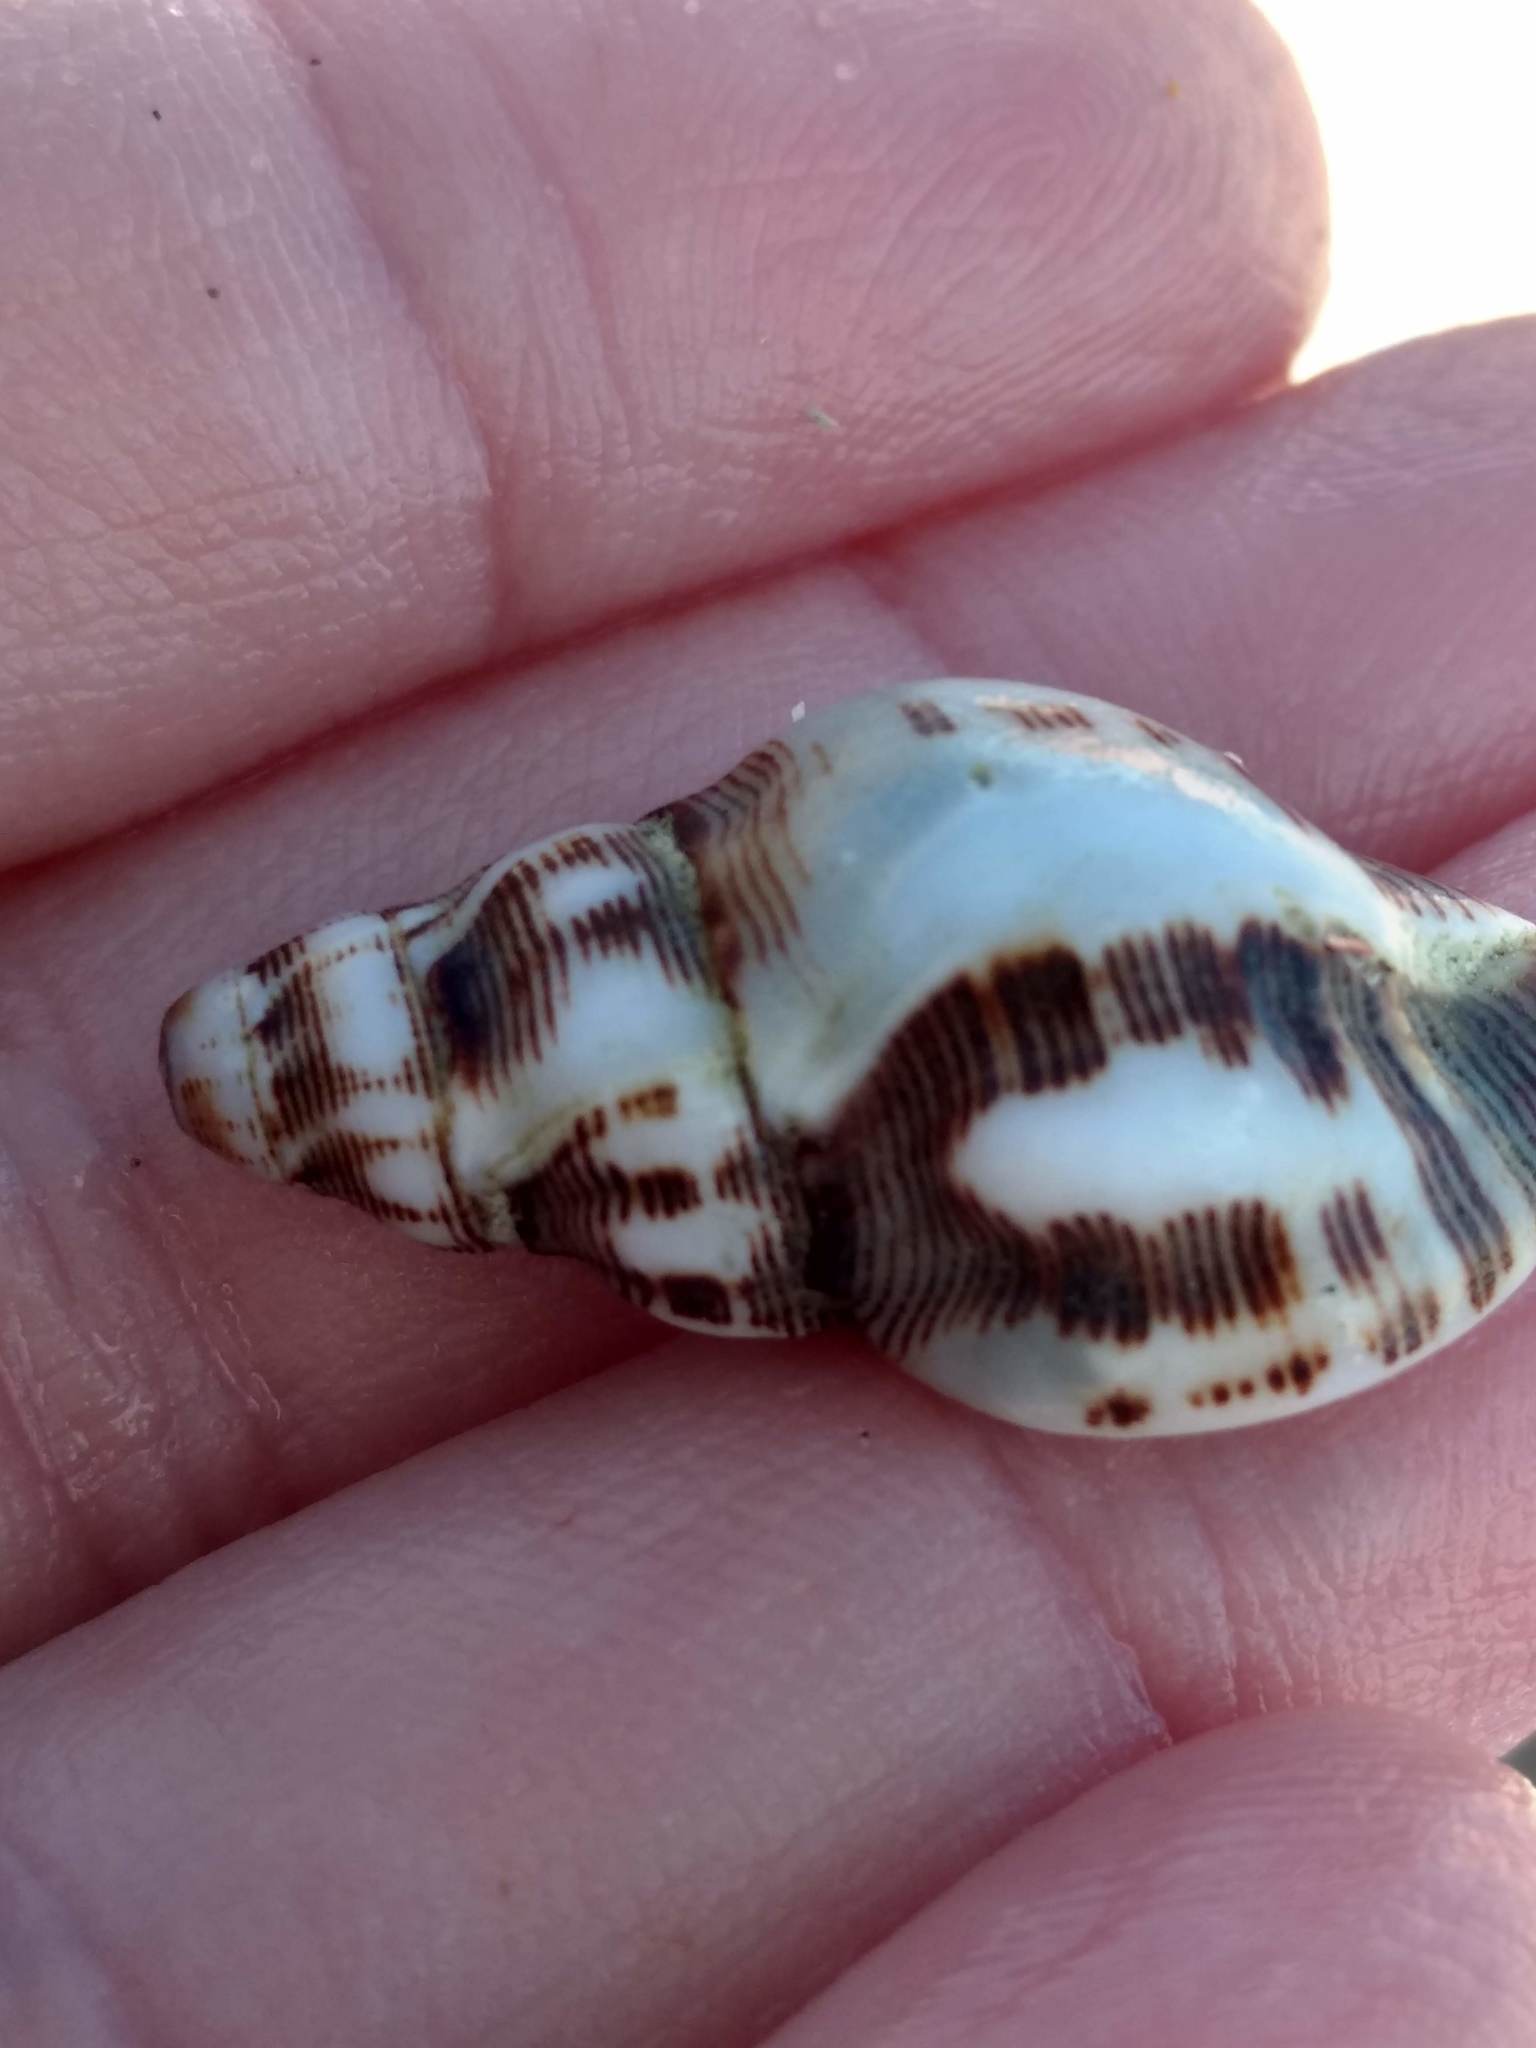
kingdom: Animalia
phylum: Mollusca
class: Gastropoda
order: Neogastropoda
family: Muricidae
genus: Roperia
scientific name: Roperia poulsoni
